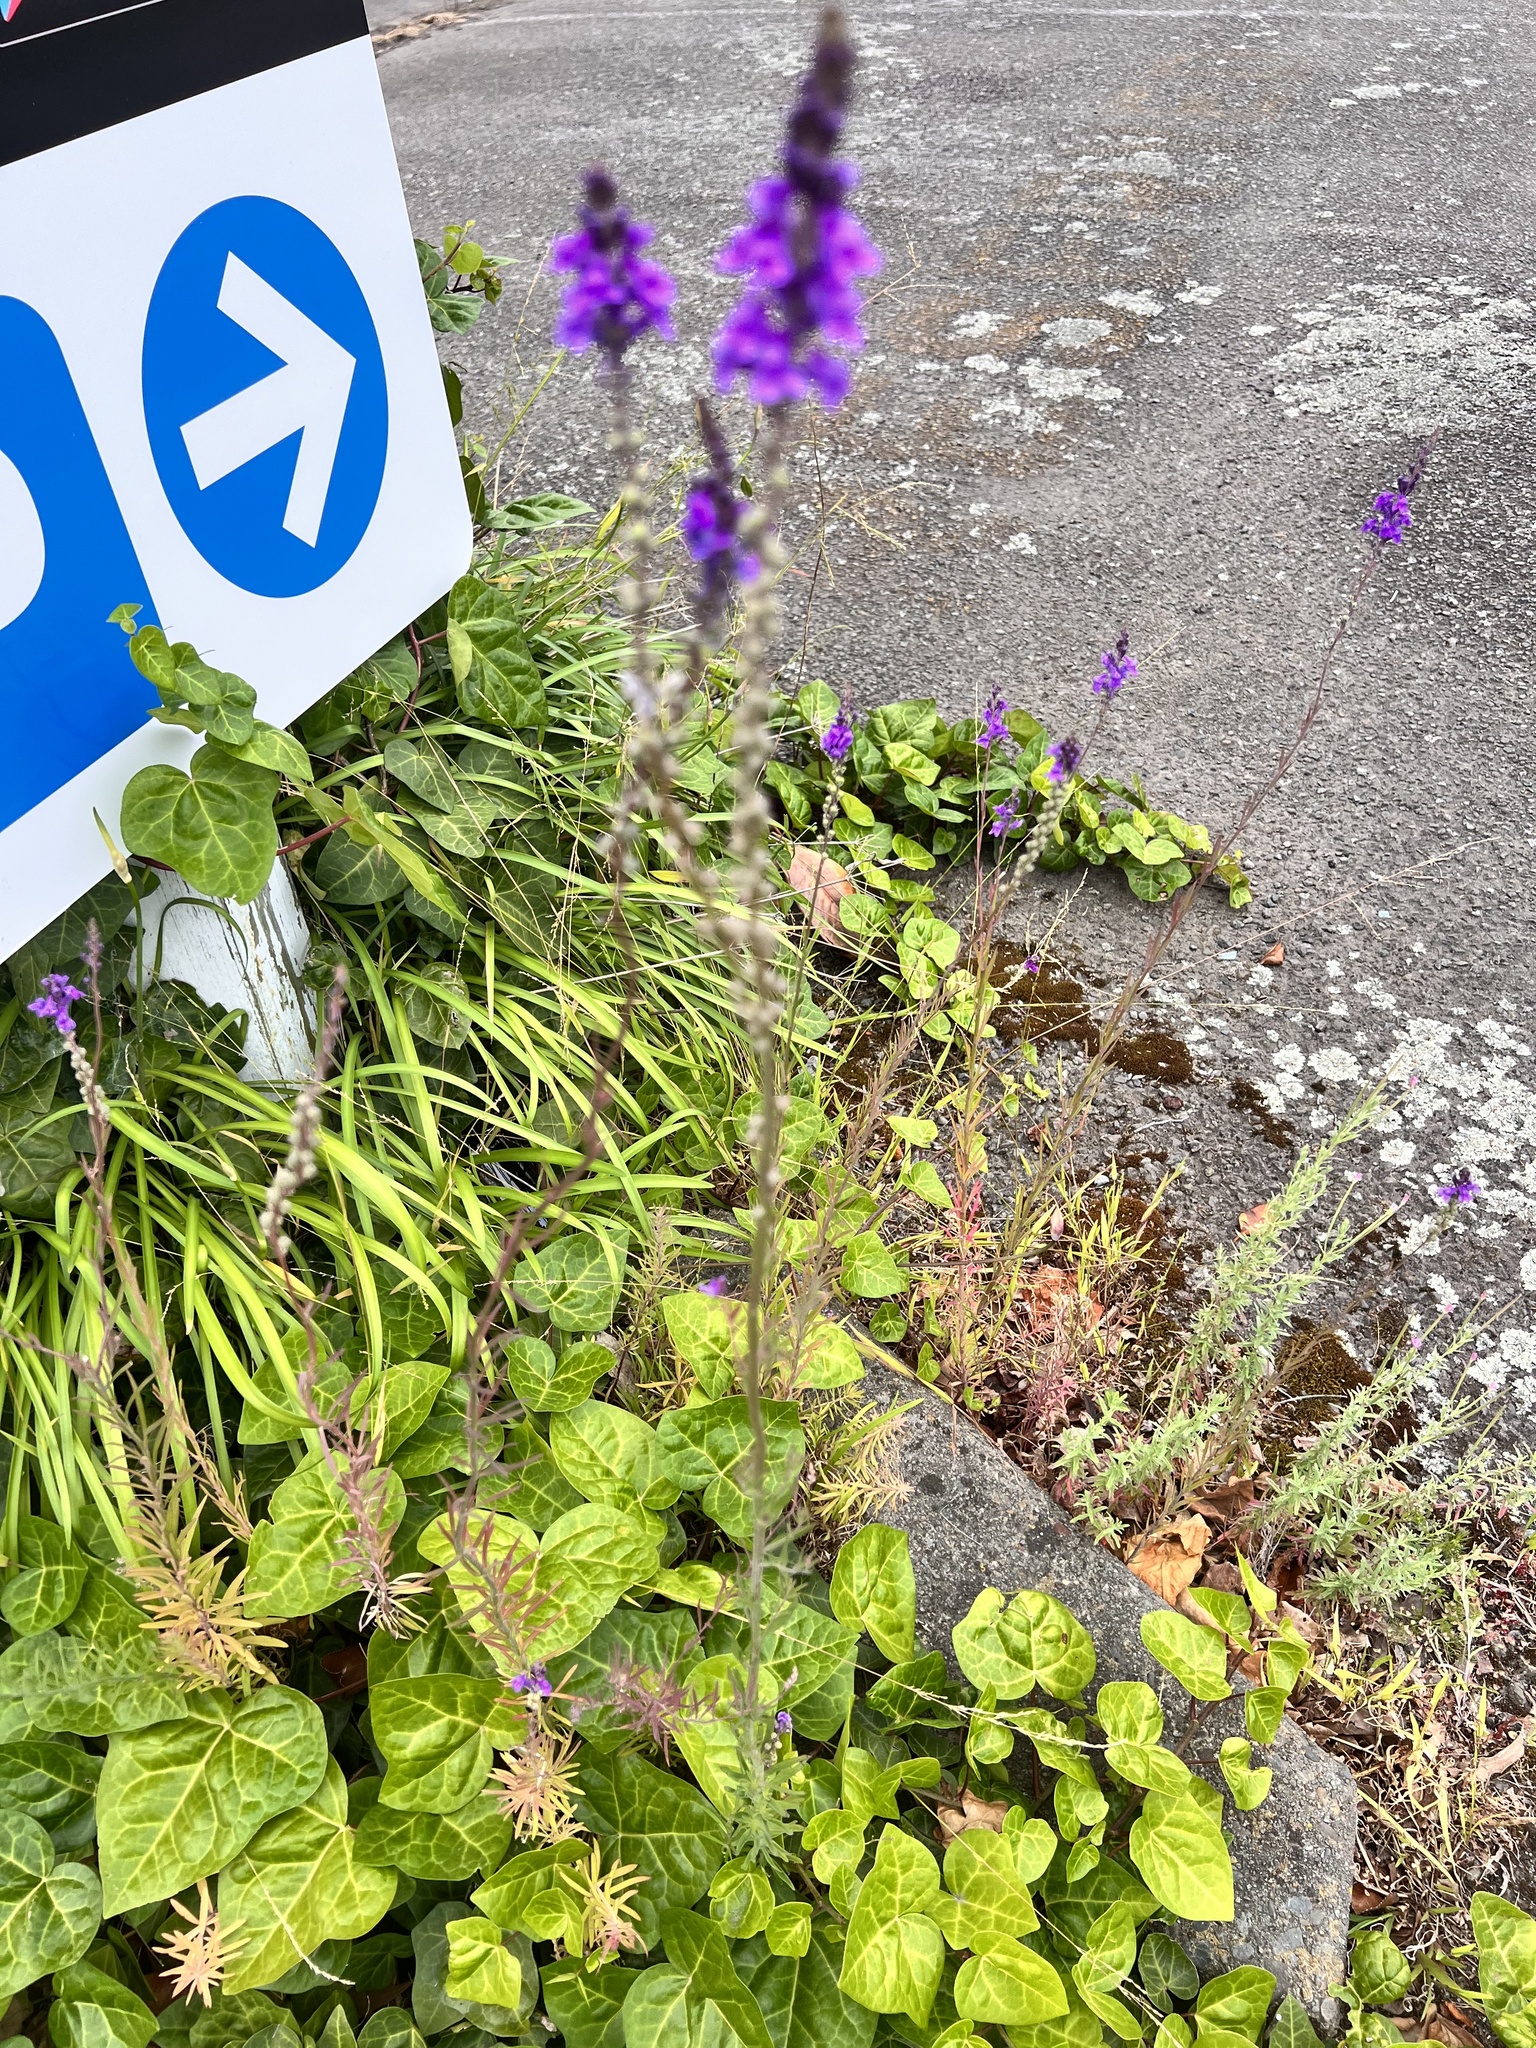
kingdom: Plantae
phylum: Tracheophyta
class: Magnoliopsida
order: Lamiales
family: Plantaginaceae
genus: Linaria
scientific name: Linaria purpurea
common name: Purple toadflax
